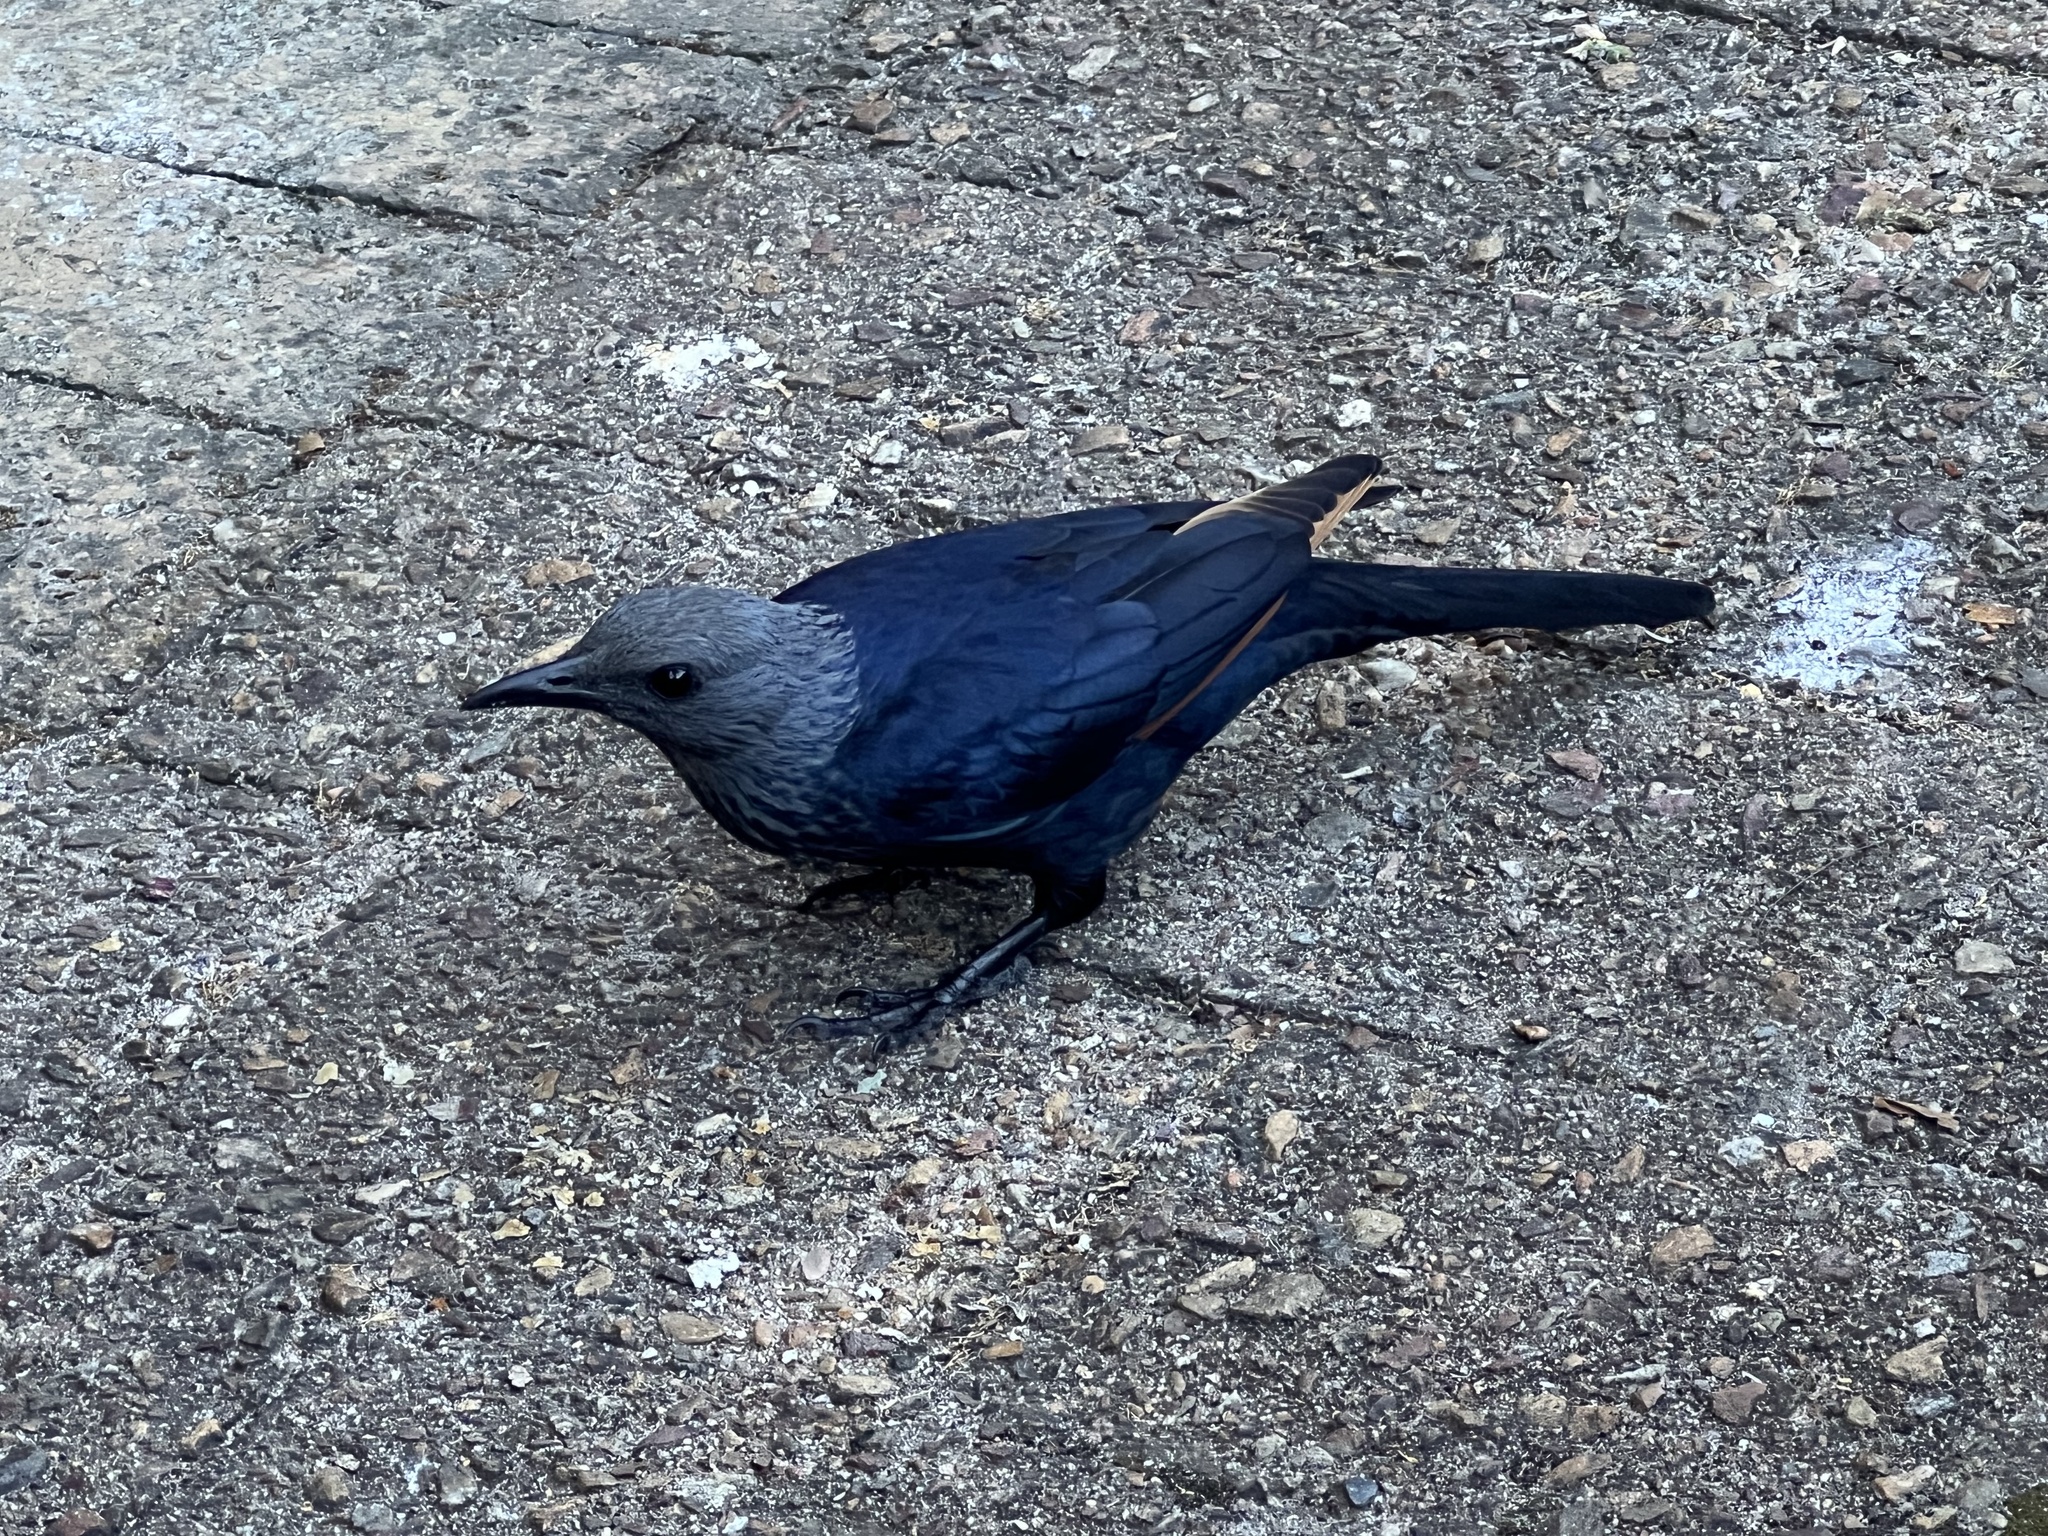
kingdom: Animalia
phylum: Chordata
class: Aves
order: Passeriformes
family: Sturnidae
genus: Onychognathus
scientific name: Onychognathus morio
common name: Red-winged starling
